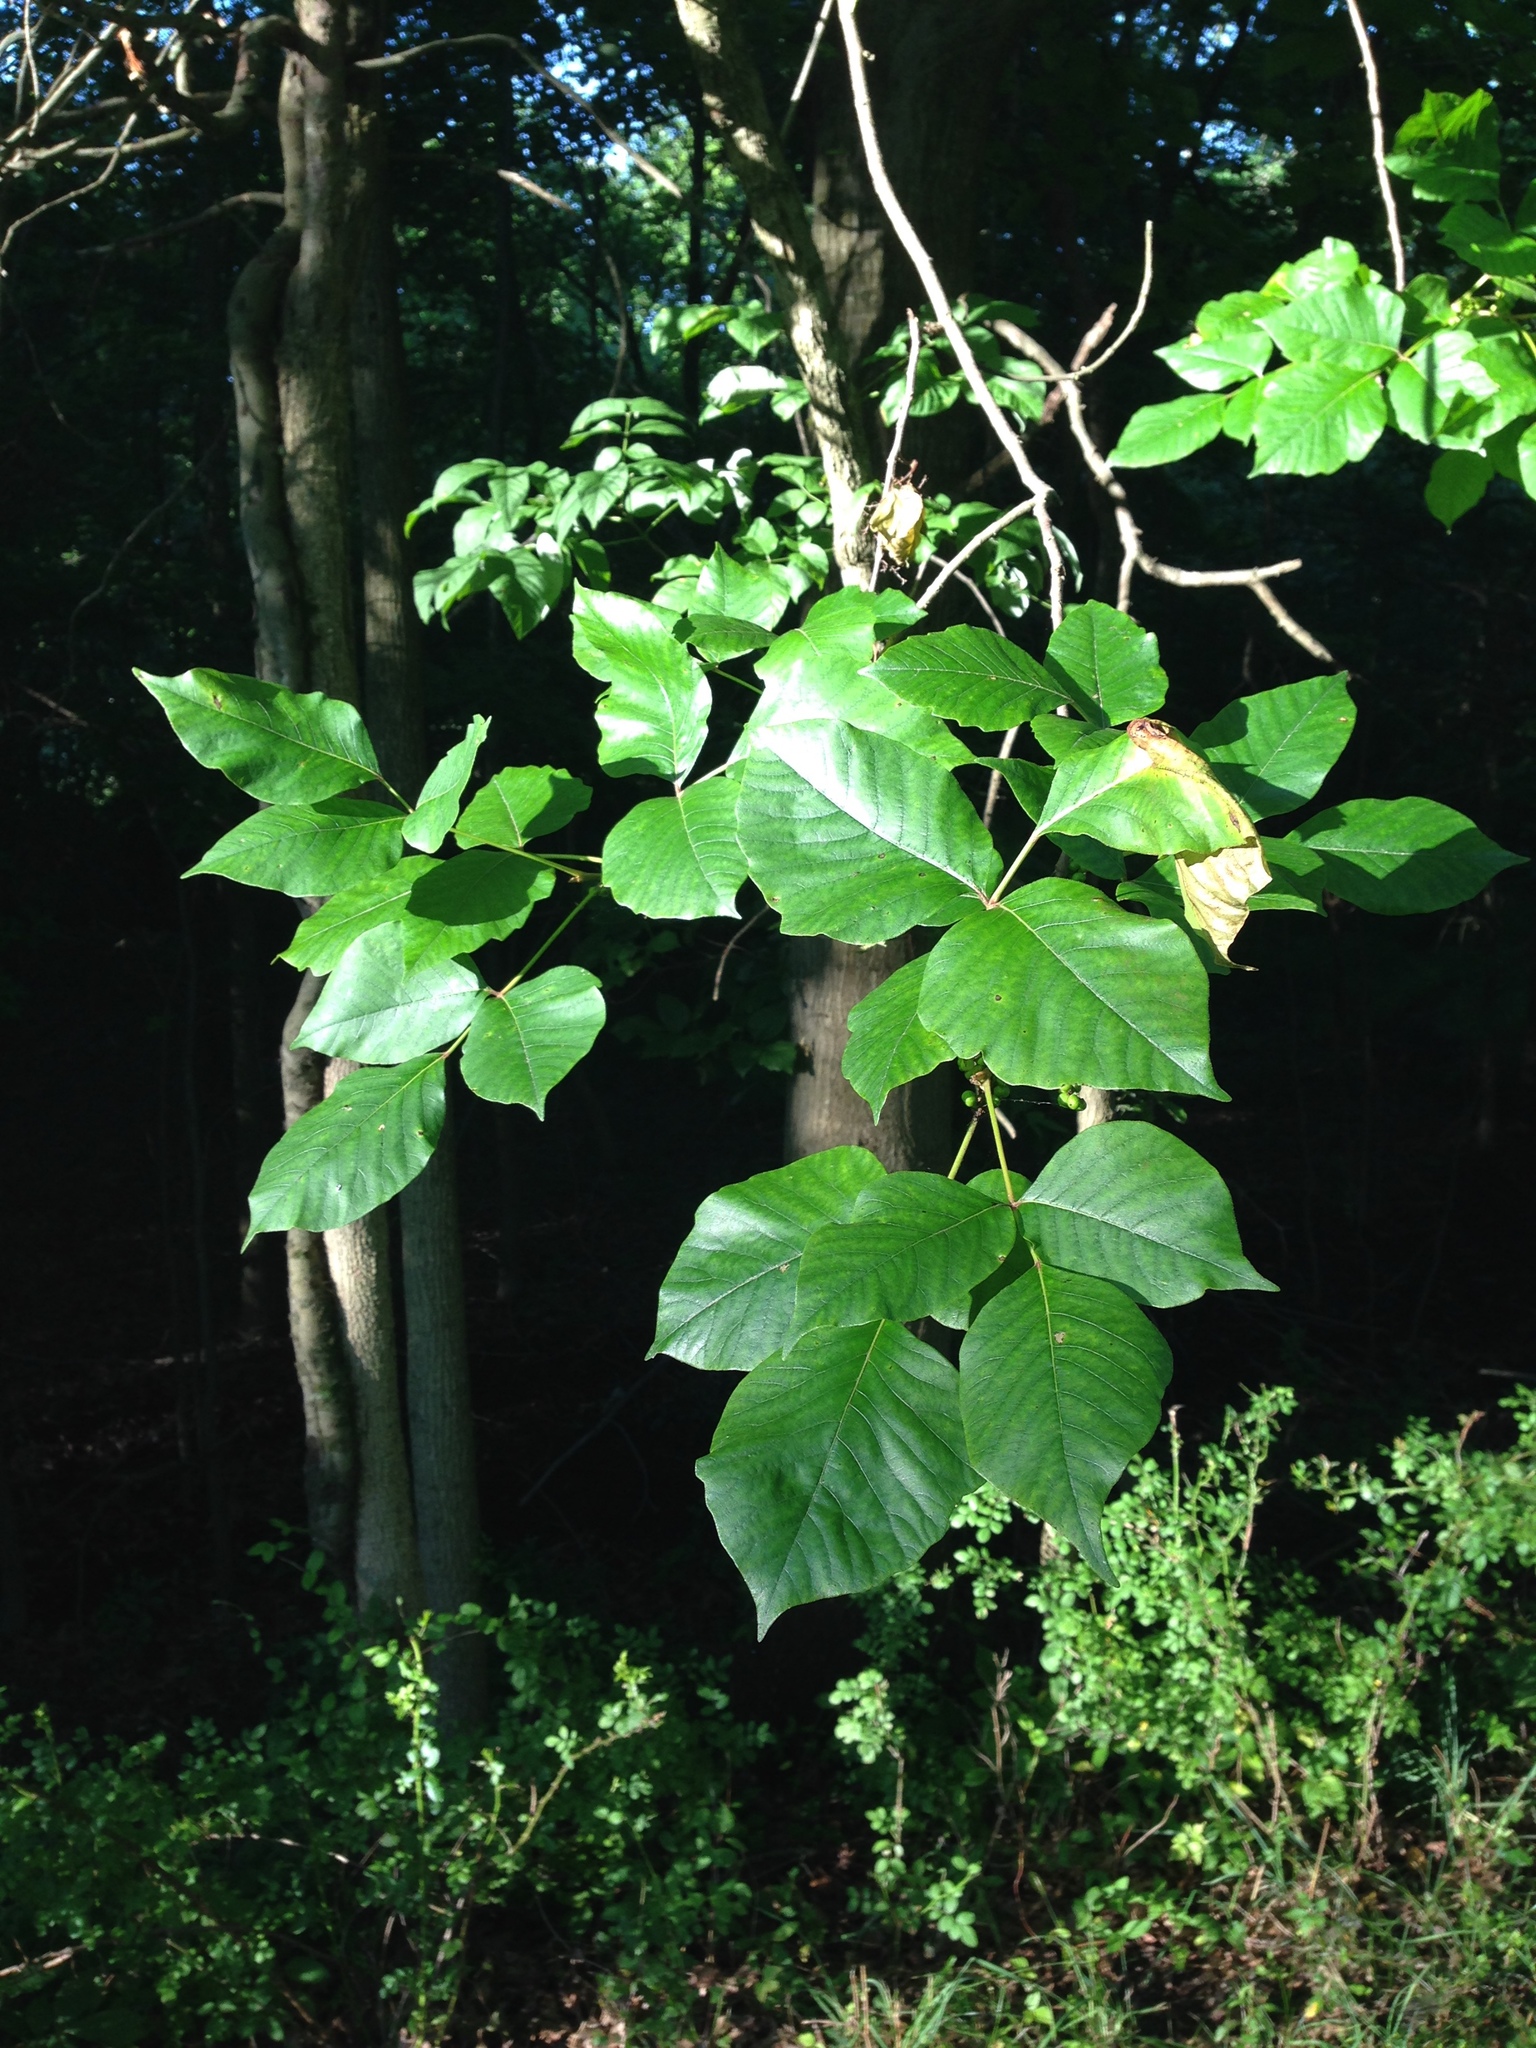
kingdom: Plantae
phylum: Tracheophyta
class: Magnoliopsida
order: Sapindales
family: Anacardiaceae
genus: Toxicodendron
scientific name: Toxicodendron radicans
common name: Poison ivy
